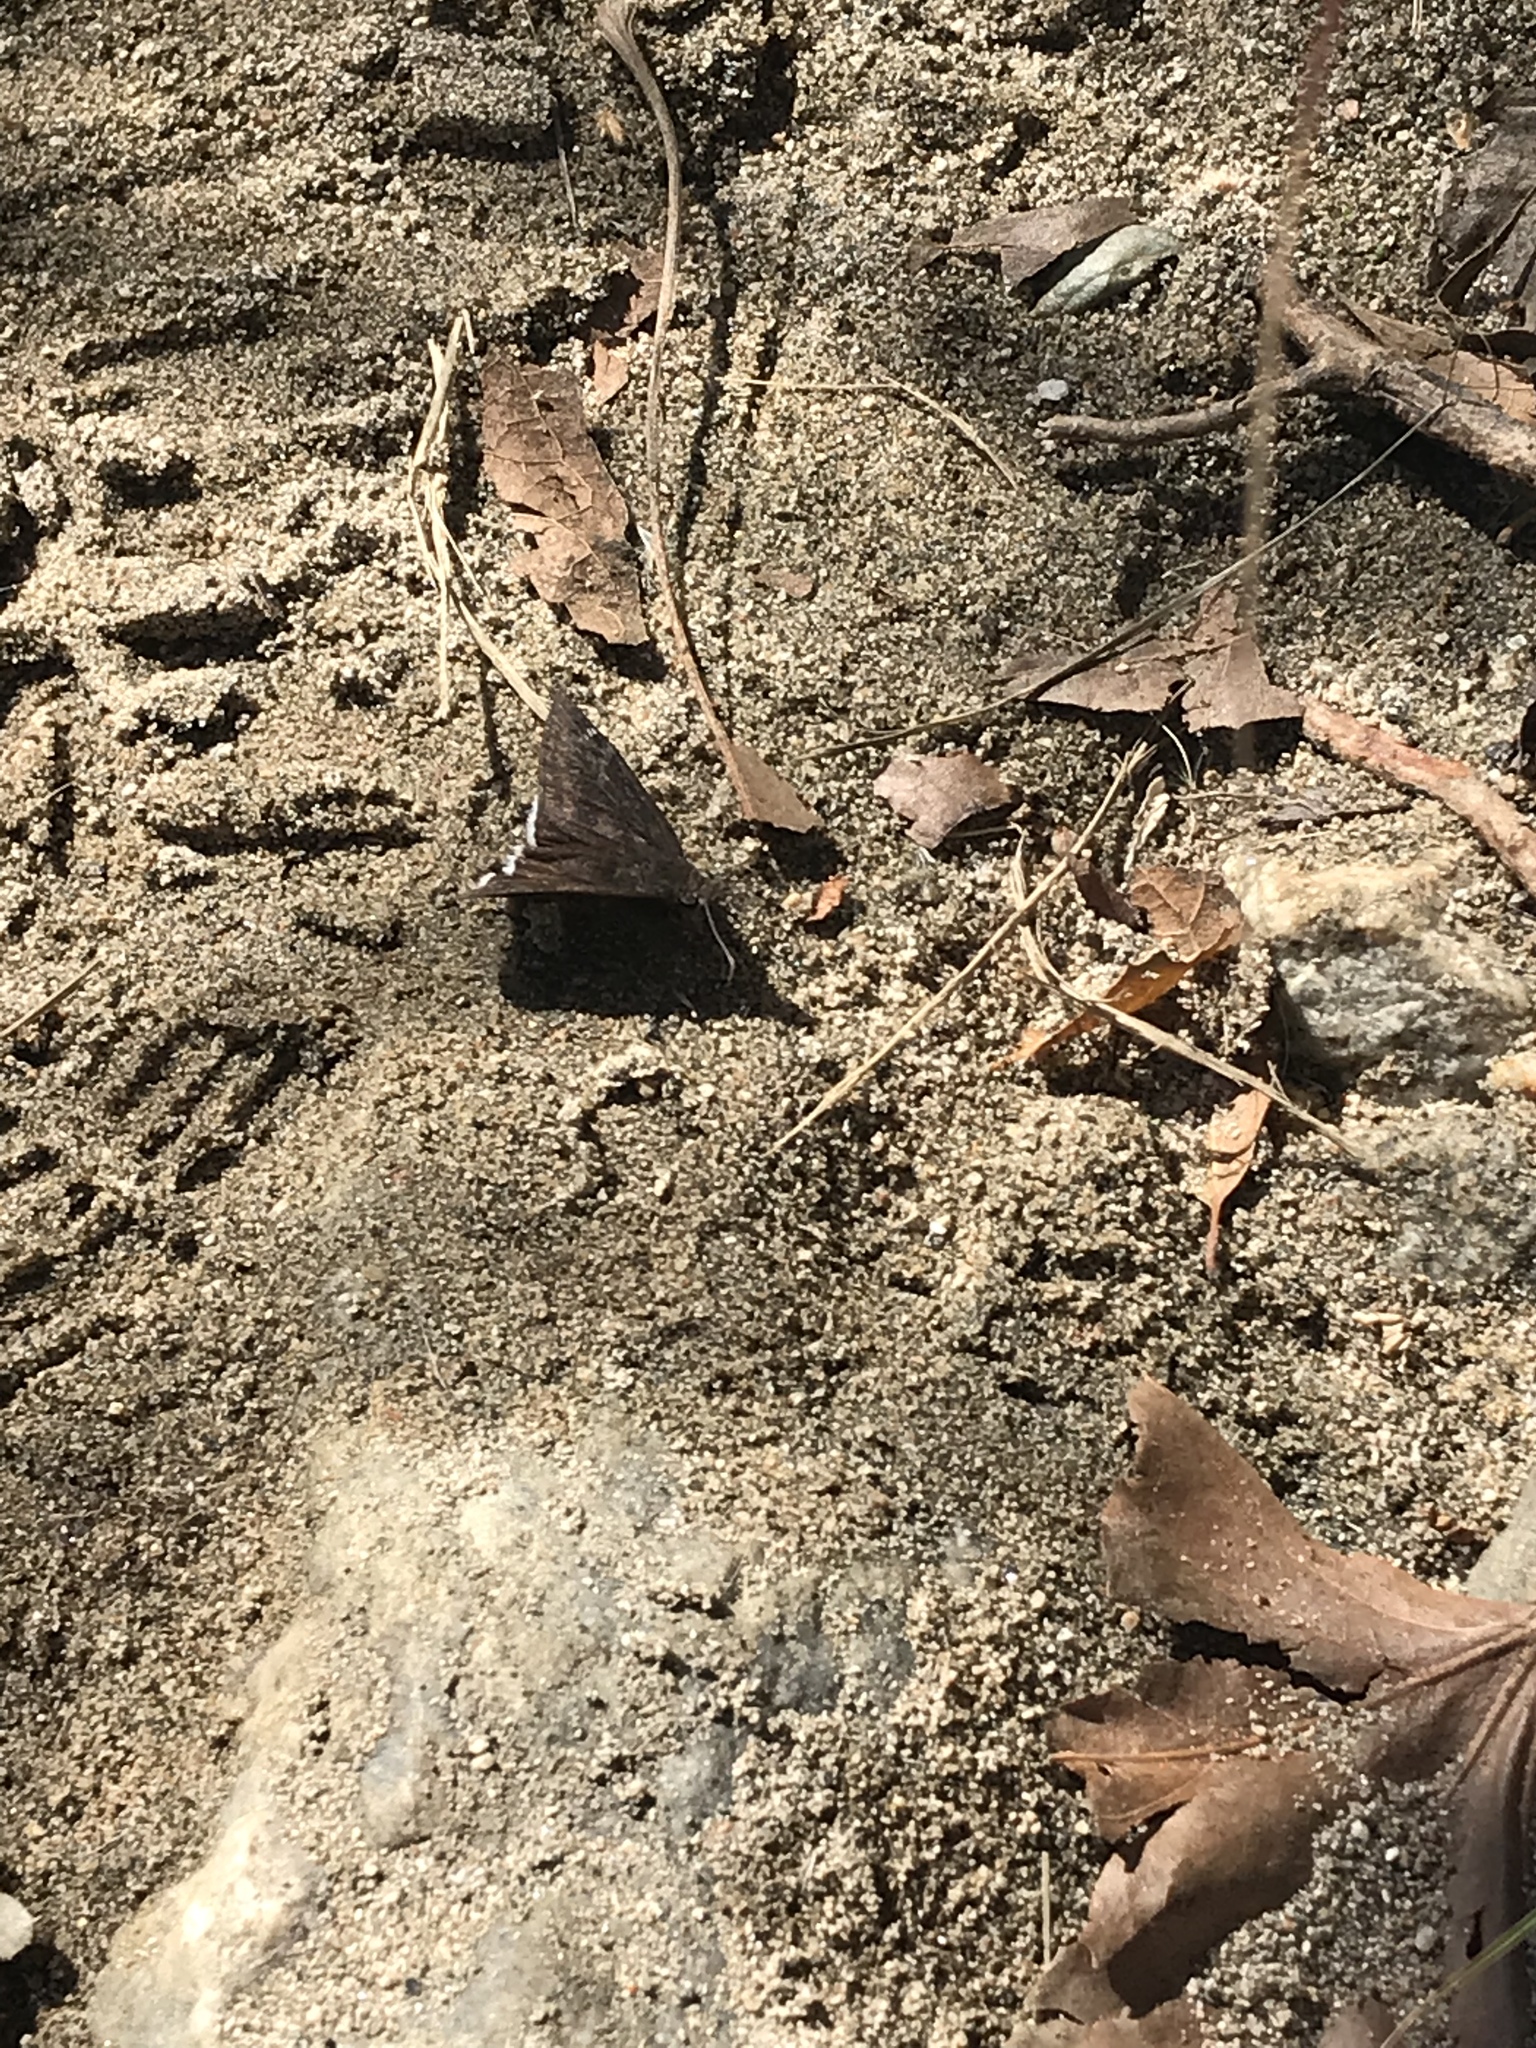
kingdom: Animalia
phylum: Arthropoda
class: Insecta
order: Lepidoptera
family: Hesperiidae
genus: Erynnis
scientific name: Erynnis tristis
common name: Mournful duskywing
